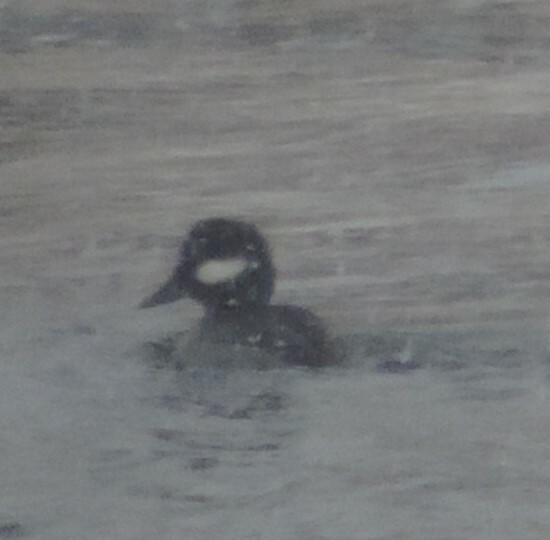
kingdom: Animalia
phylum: Chordata
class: Aves
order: Anseriformes
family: Anatidae
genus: Bucephala
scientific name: Bucephala albeola
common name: Bufflehead
